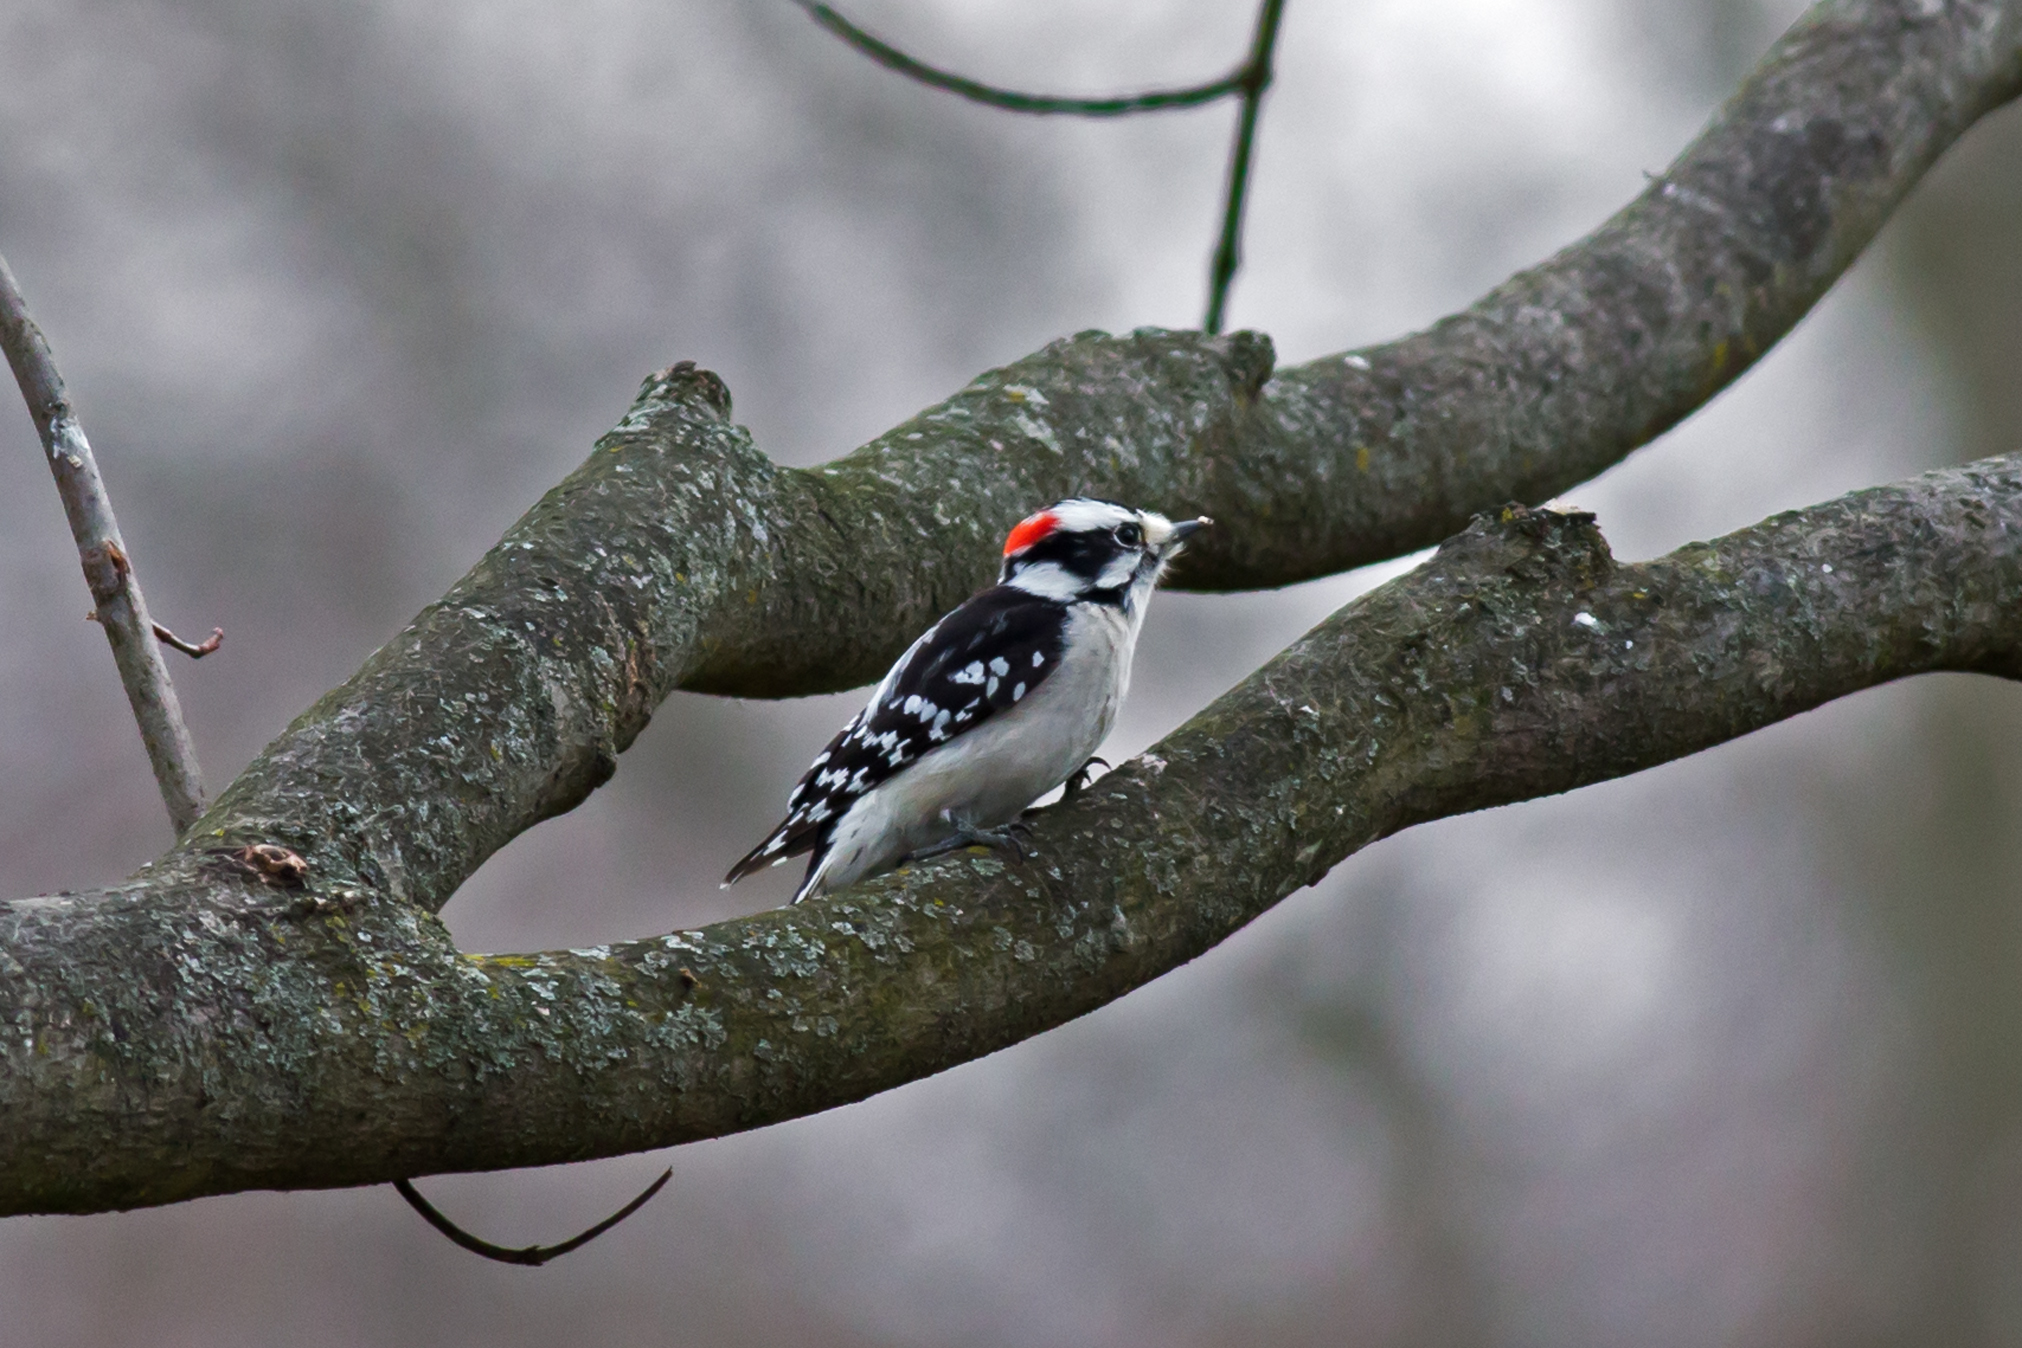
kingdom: Animalia
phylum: Chordata
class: Aves
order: Piciformes
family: Picidae
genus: Dryobates
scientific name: Dryobates pubescens
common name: Downy woodpecker
